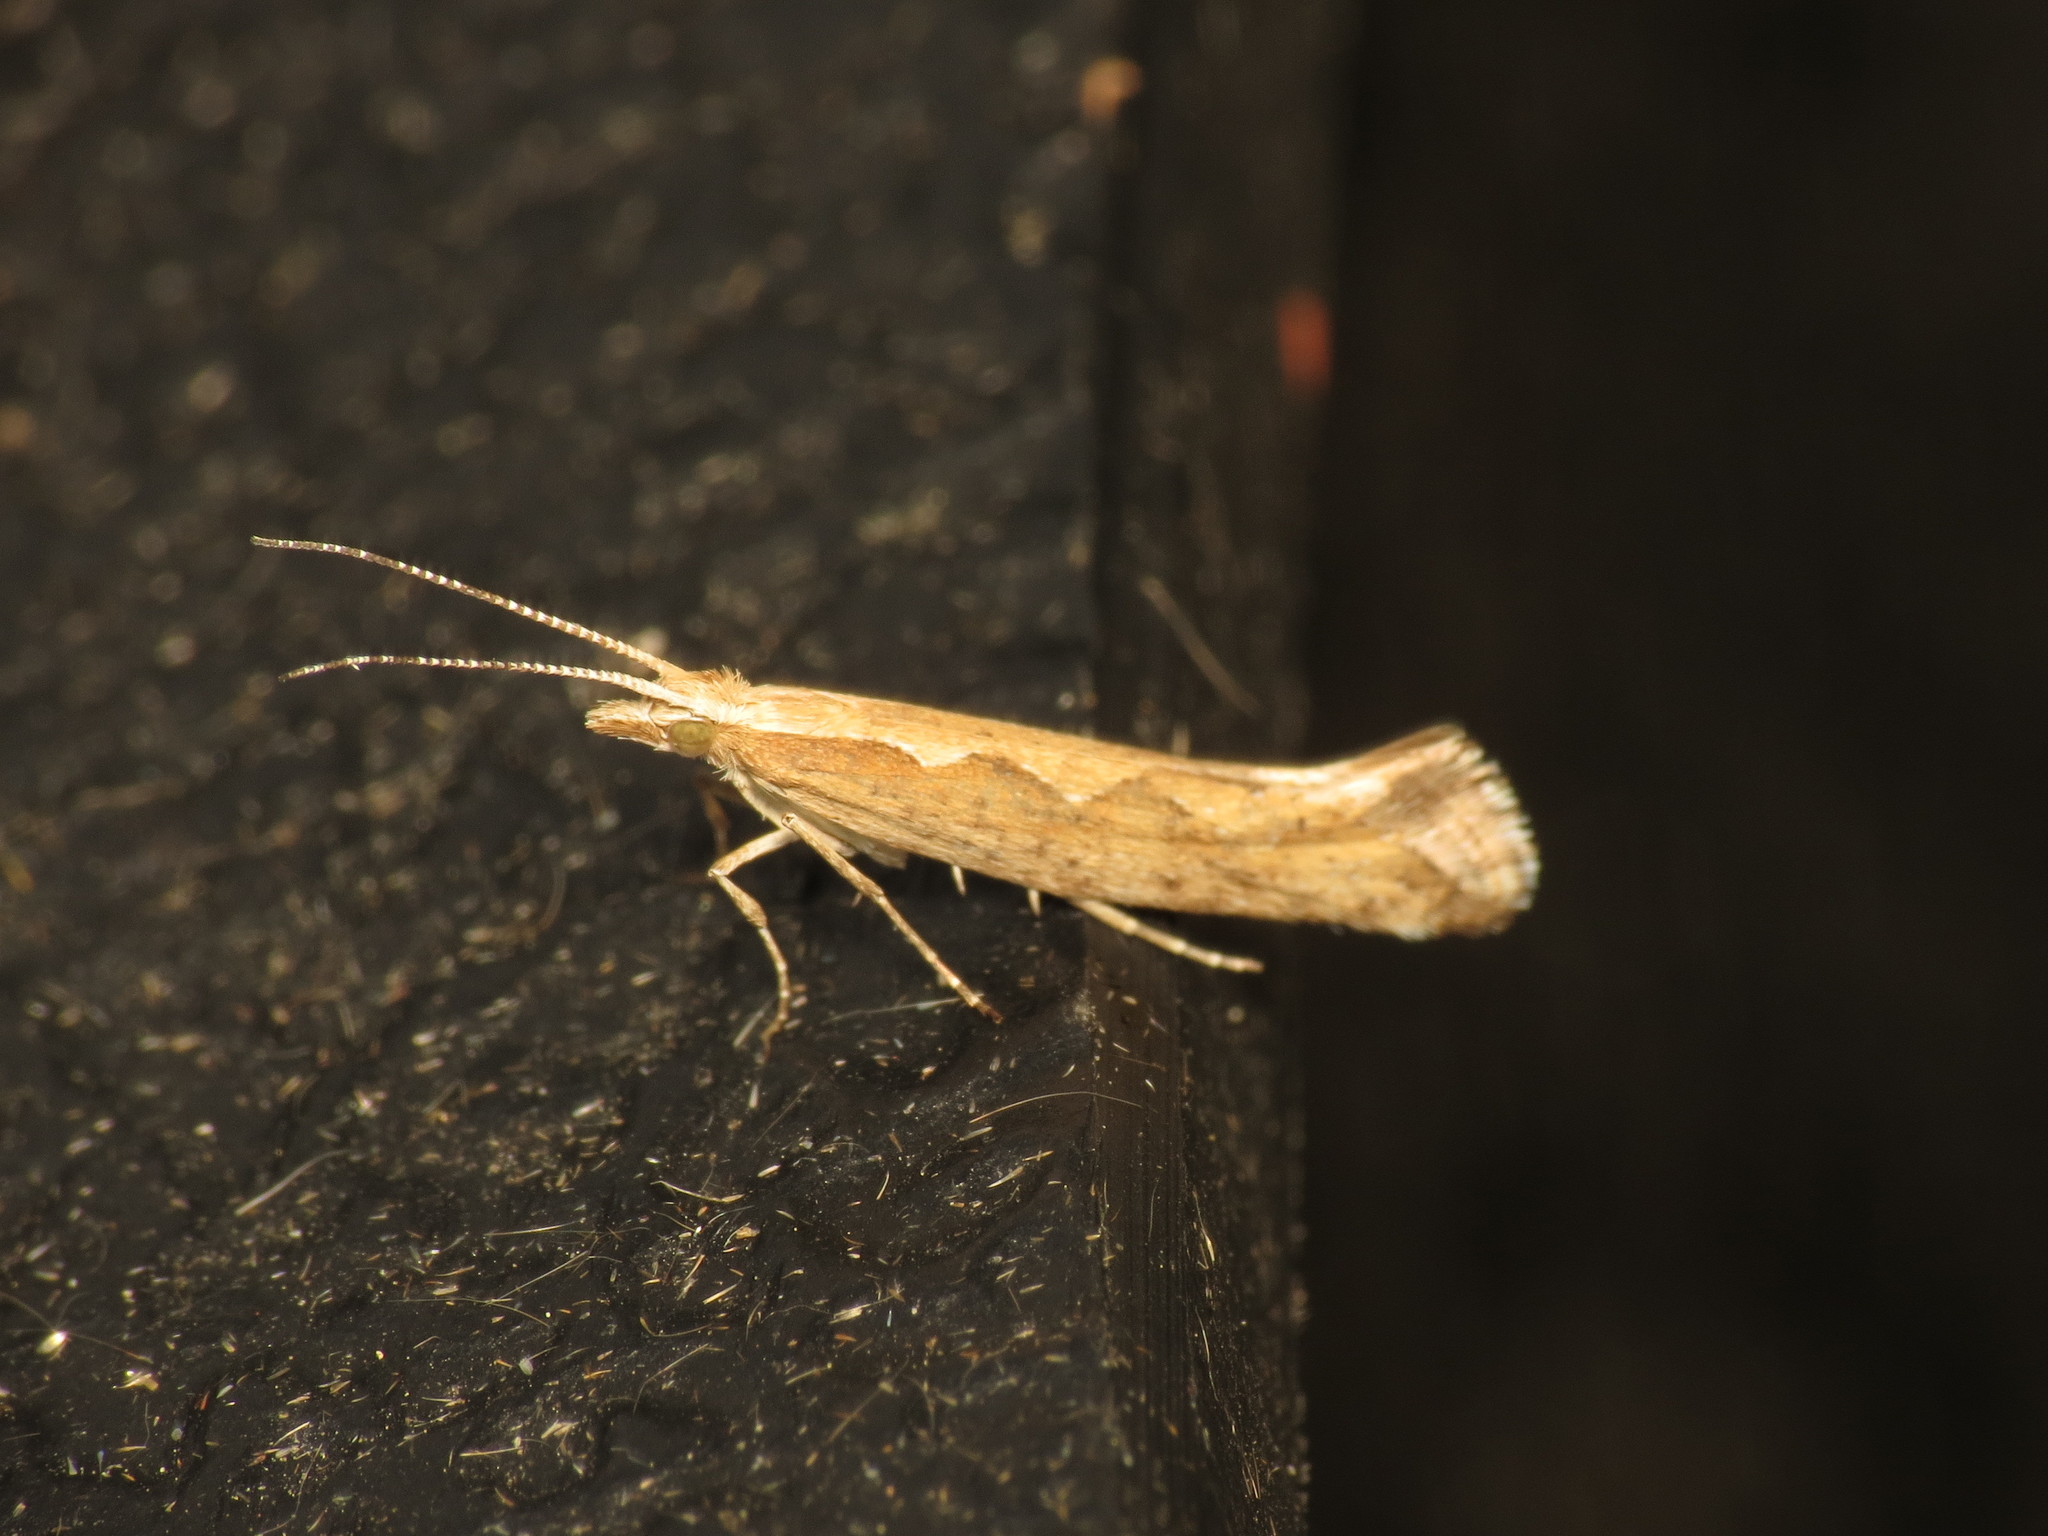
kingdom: Animalia
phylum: Arthropoda
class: Insecta
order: Lepidoptera
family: Plutellidae
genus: Plutella
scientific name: Plutella xylostella
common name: Diamond-back moth
